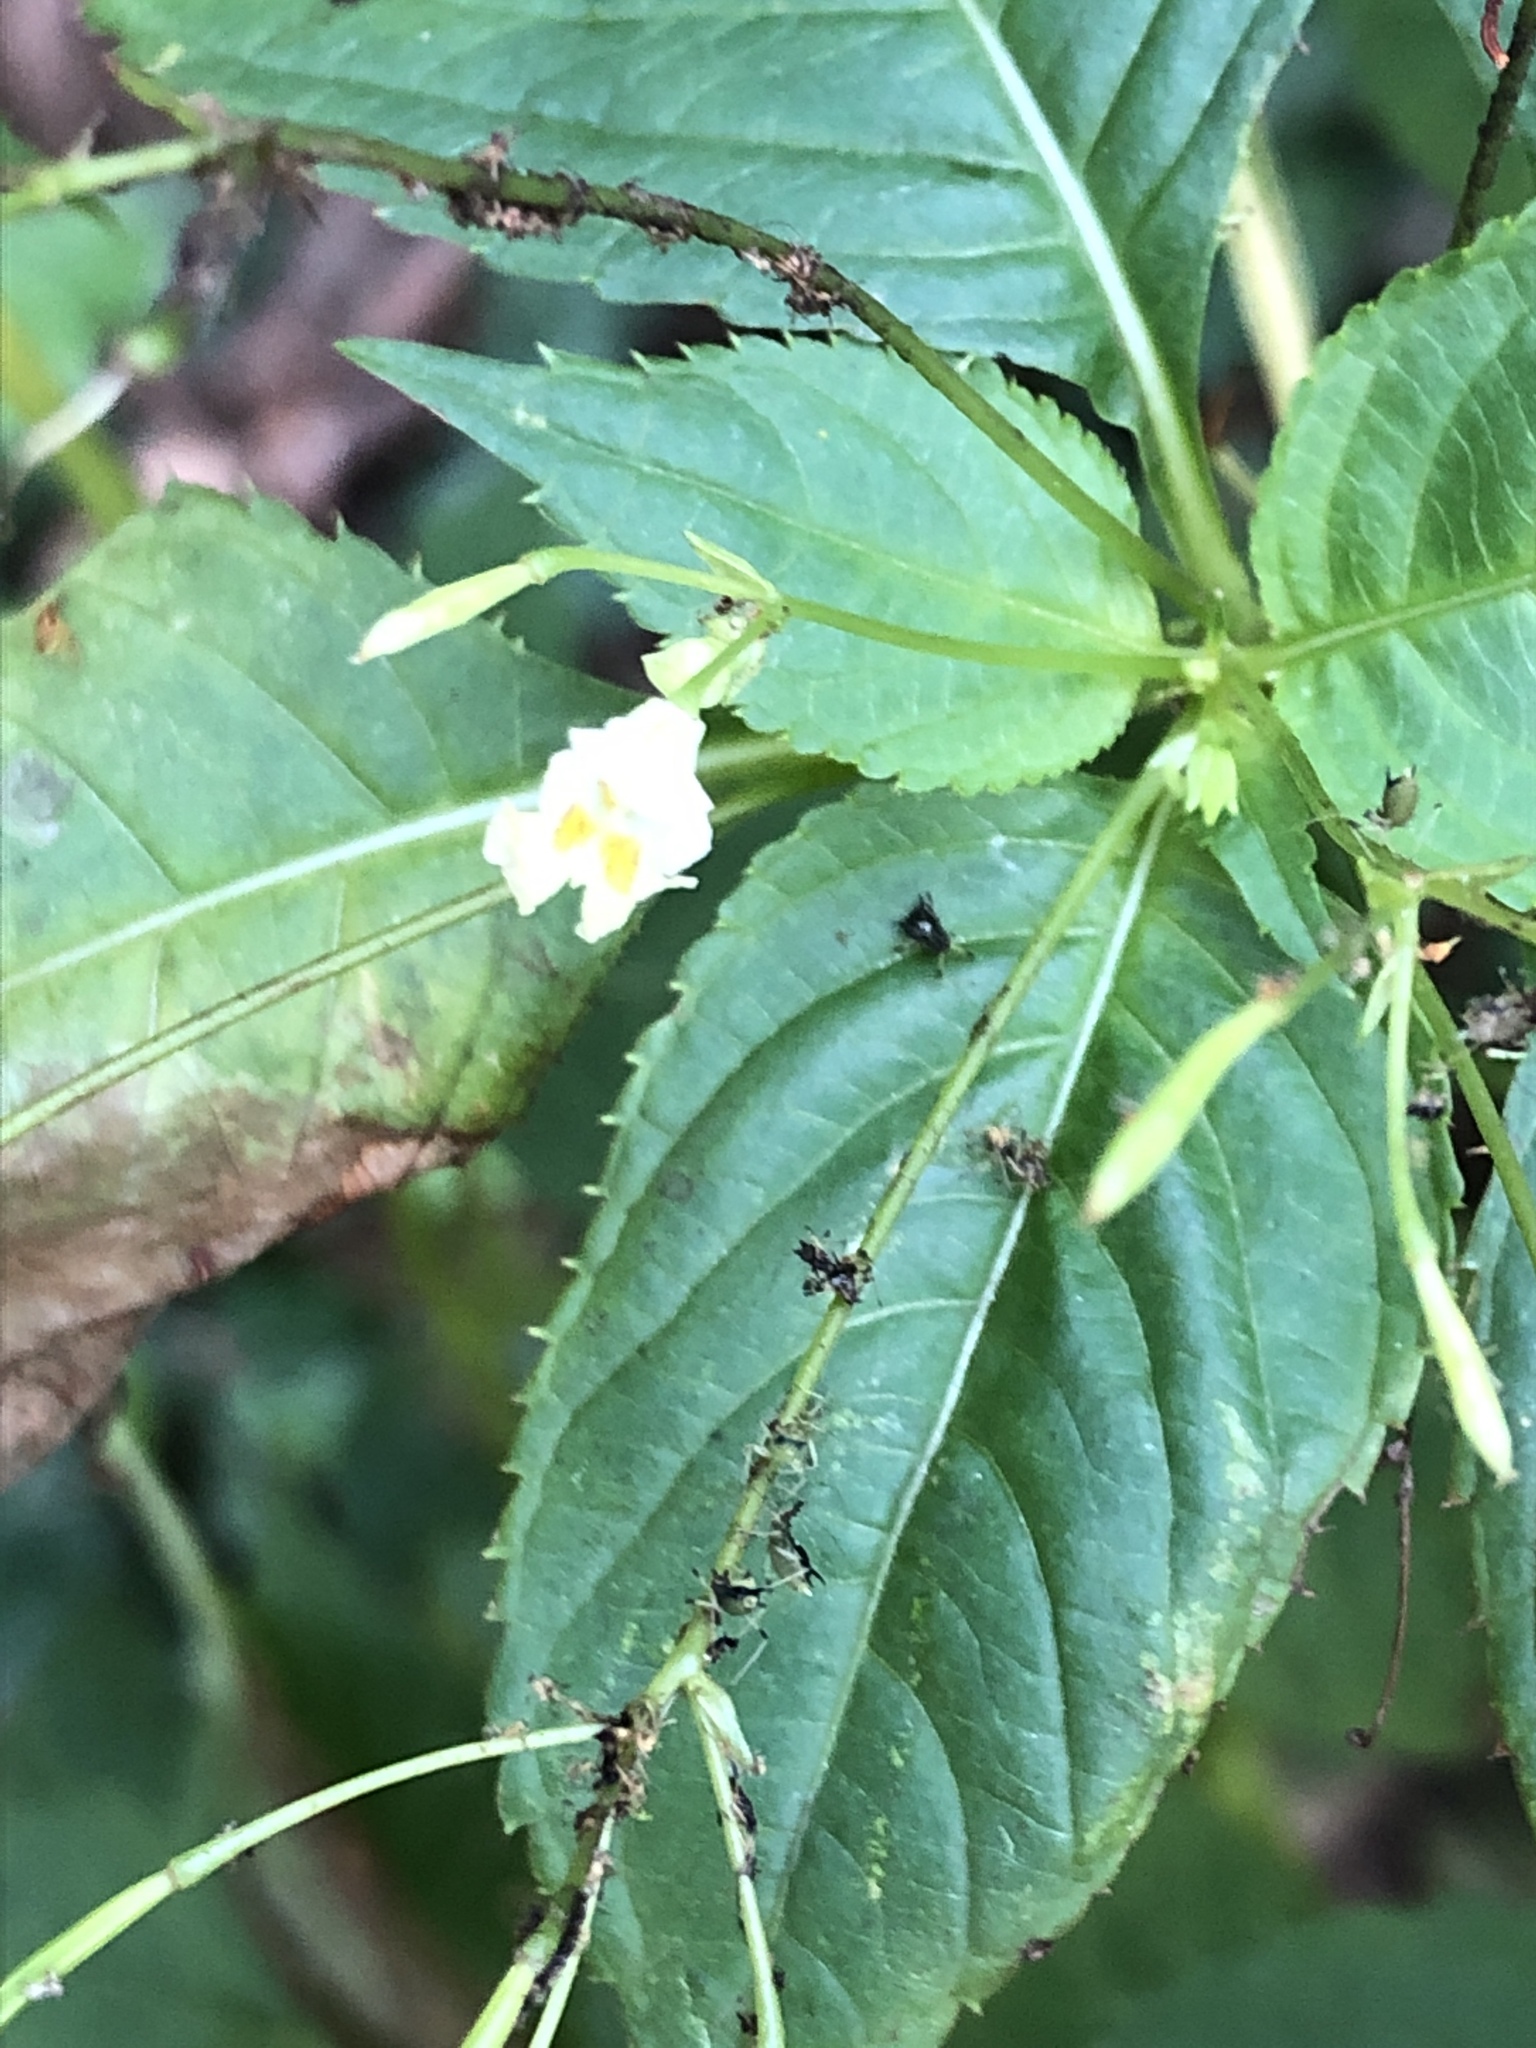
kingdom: Plantae
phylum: Tracheophyta
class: Magnoliopsida
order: Ericales
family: Balsaminaceae
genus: Impatiens
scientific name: Impatiens parviflora
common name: Small balsam
